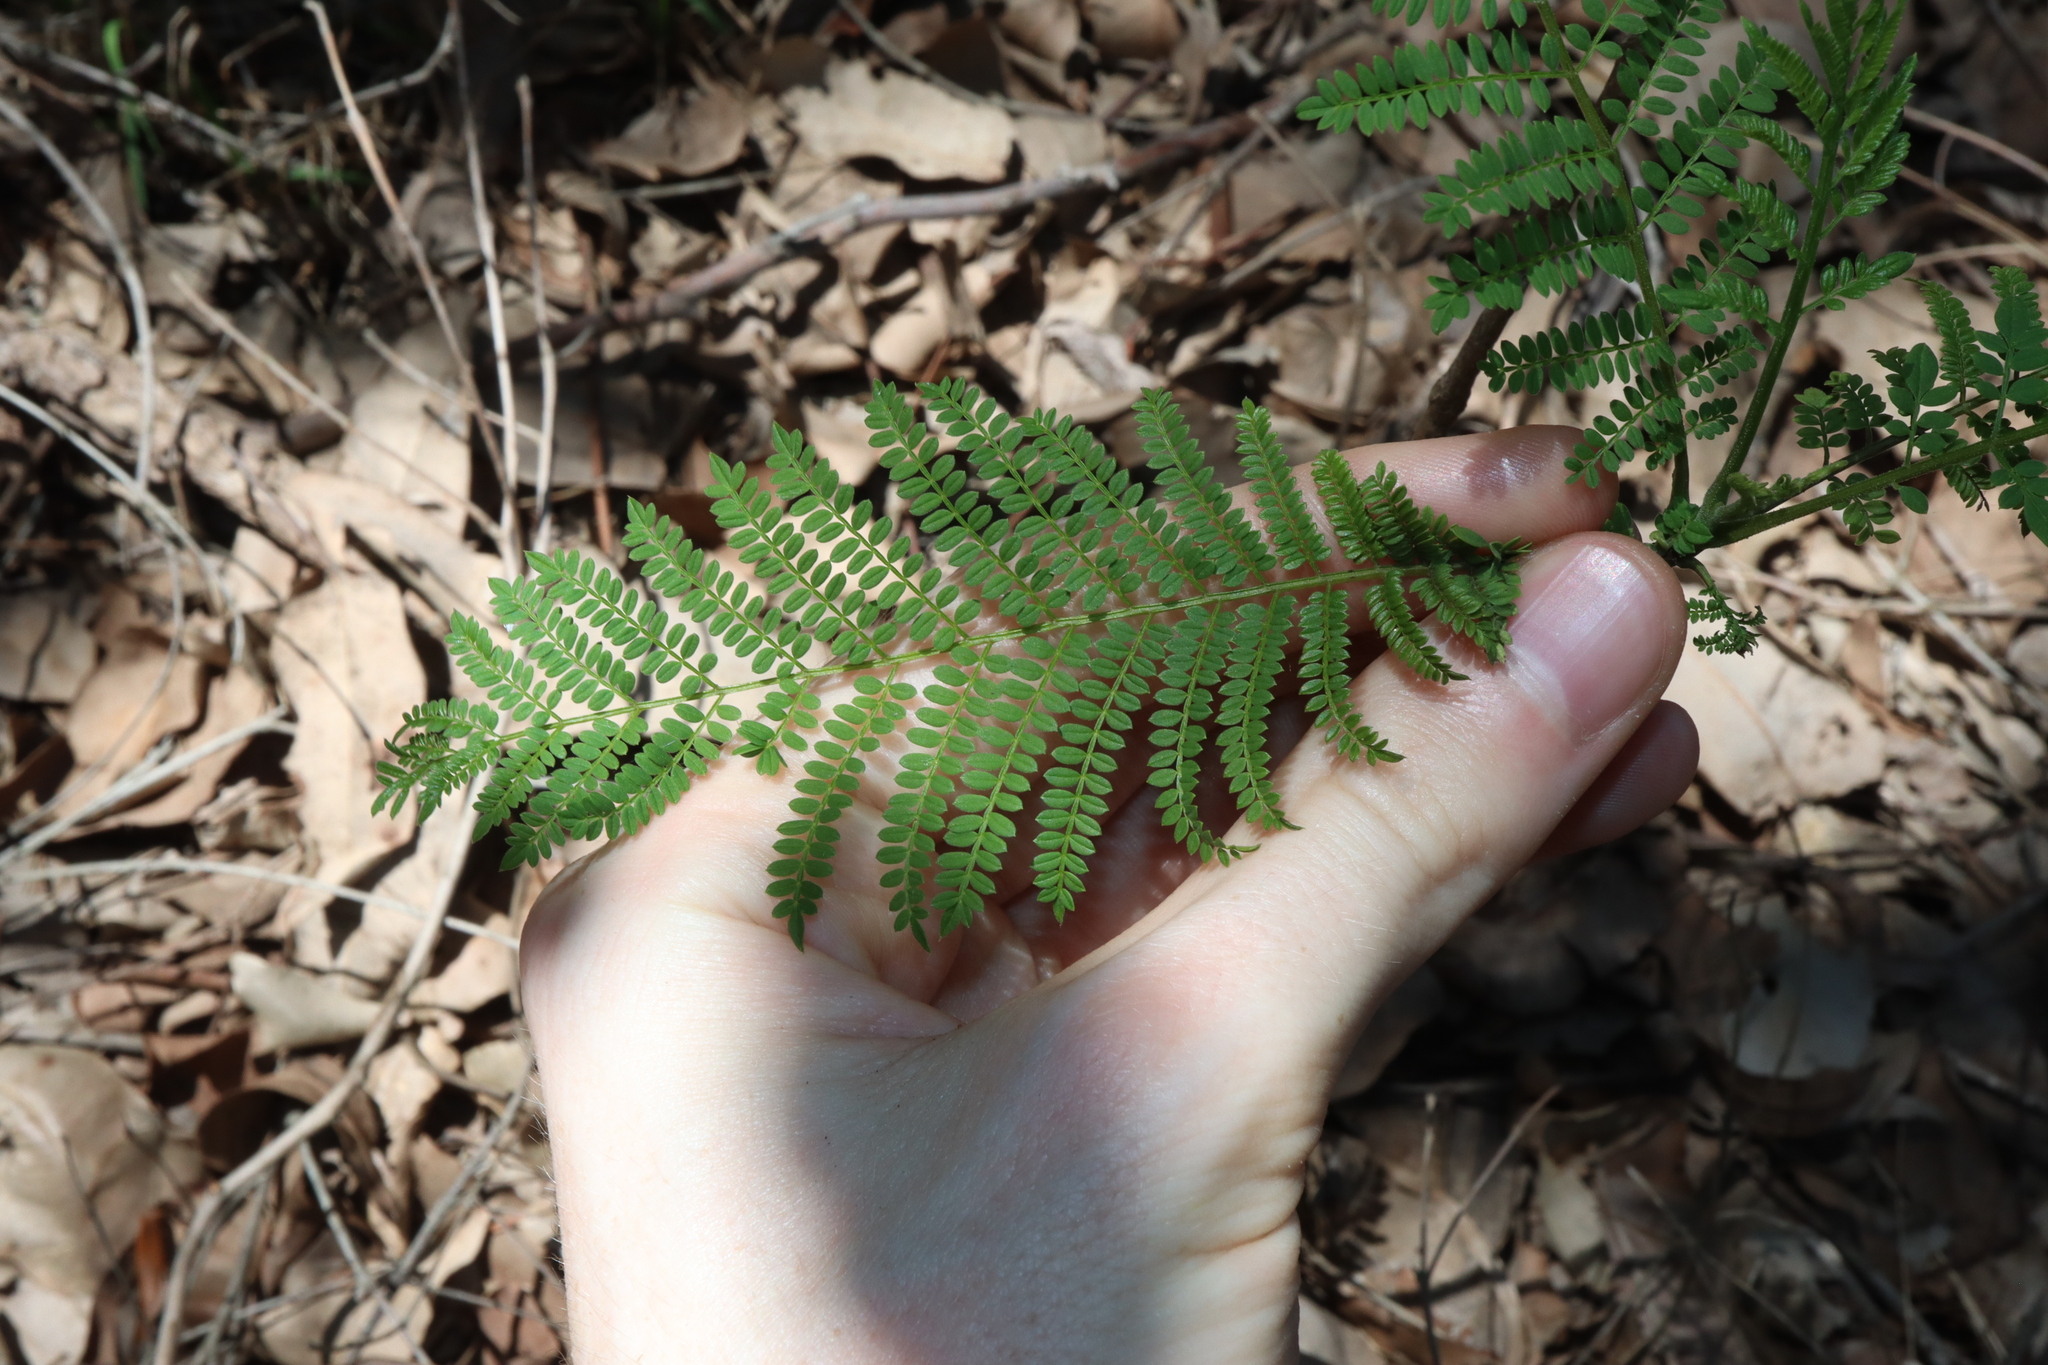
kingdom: Plantae
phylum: Tracheophyta
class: Magnoliopsida
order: Lamiales
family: Bignoniaceae
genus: Jacaranda
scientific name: Jacaranda mimosifolia
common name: Black poui
